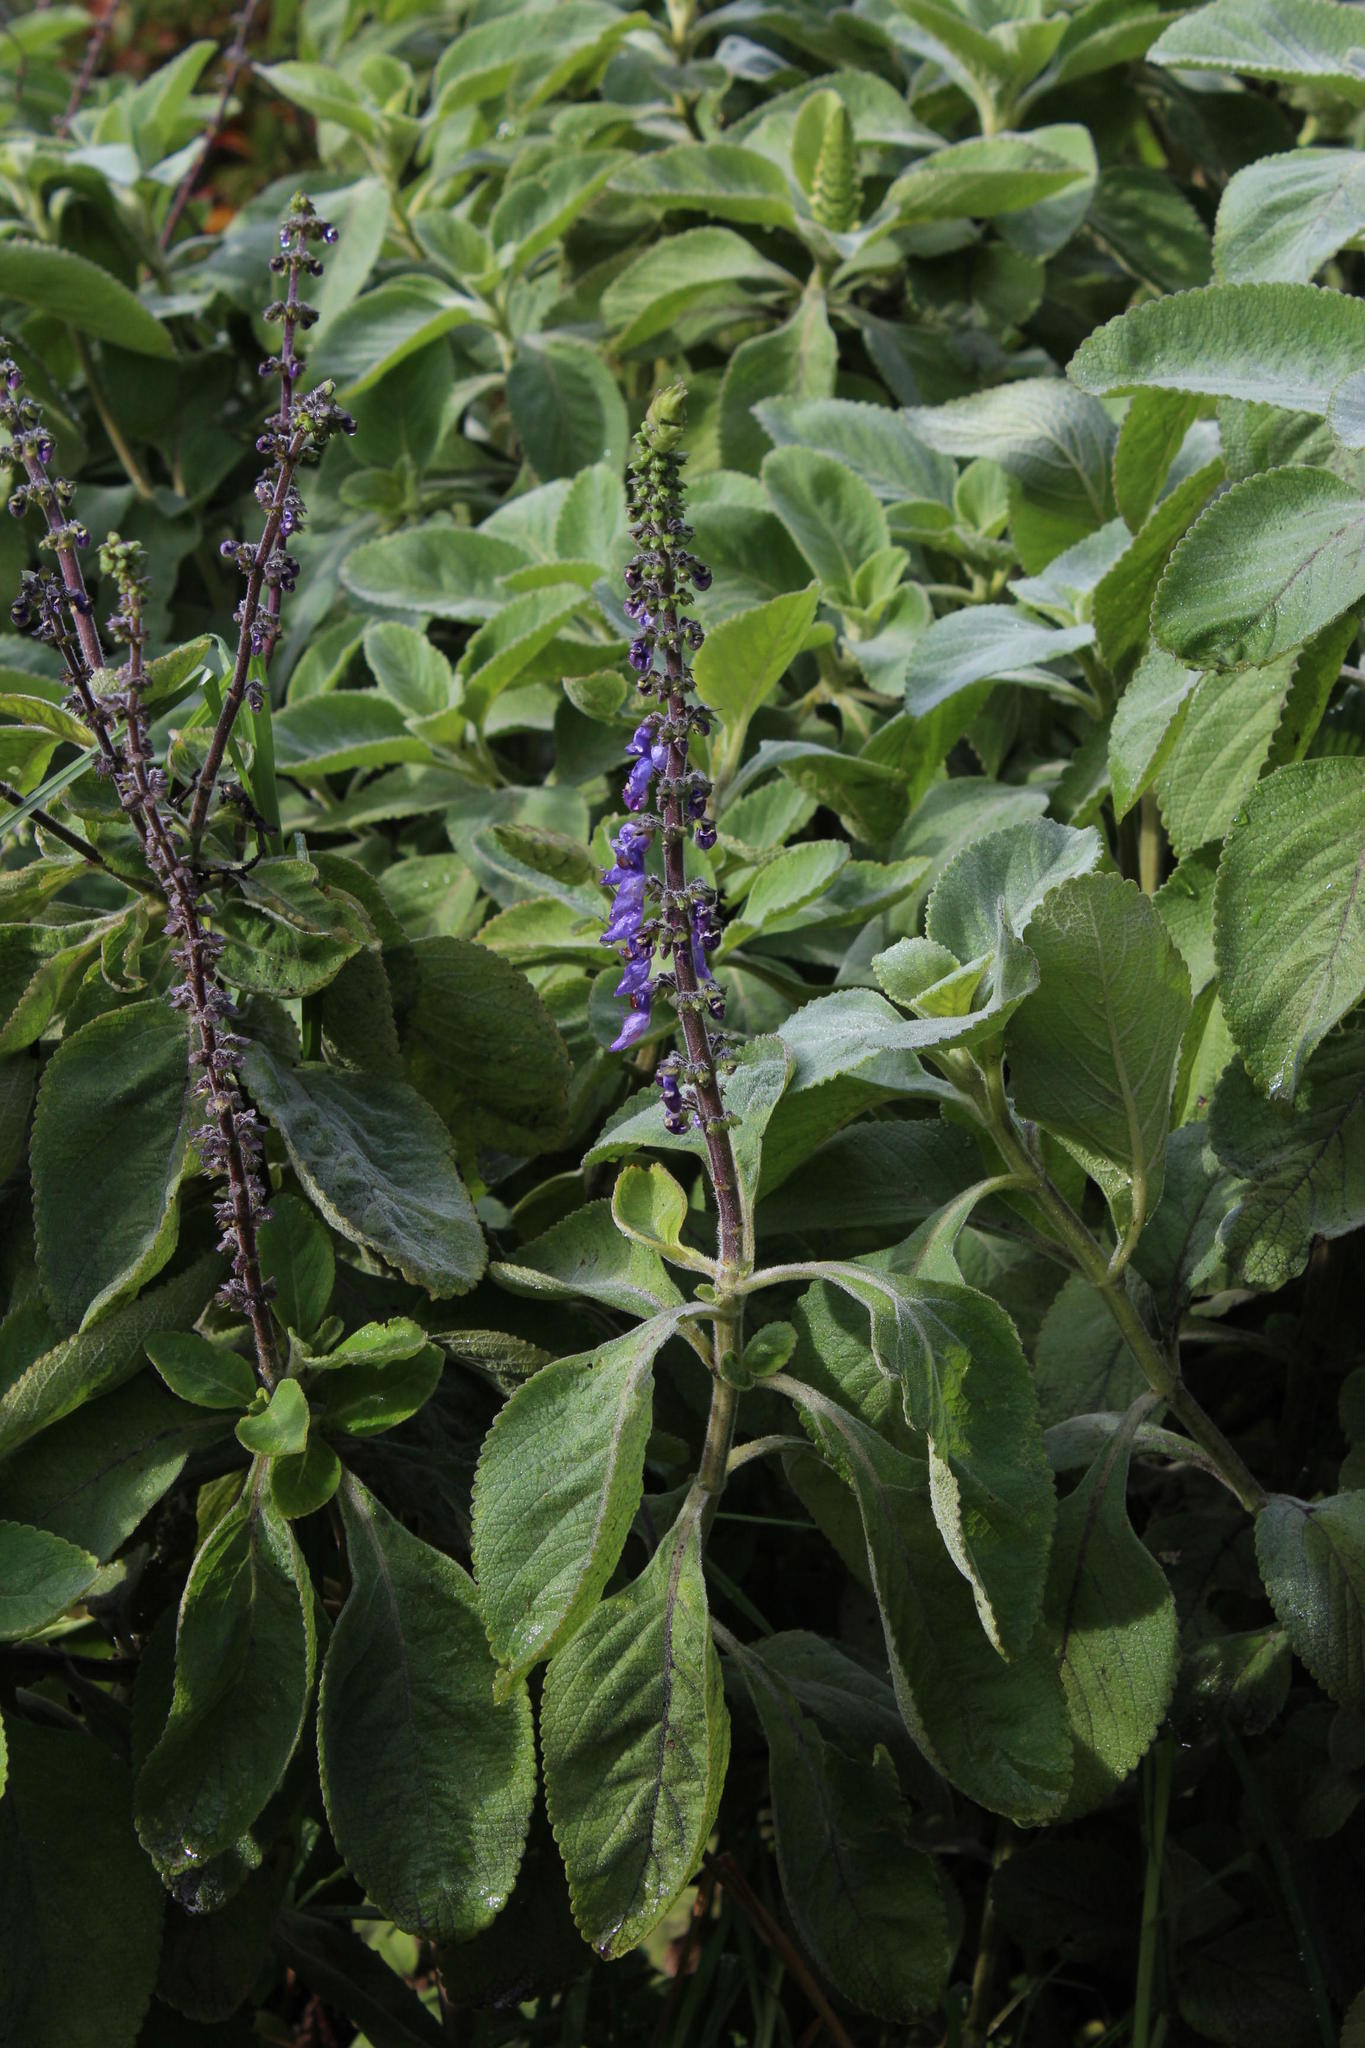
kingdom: Plantae
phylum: Tracheophyta
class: Magnoliopsida
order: Lamiales
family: Lamiaceae
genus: Coleus
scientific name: Coleus barbatus
